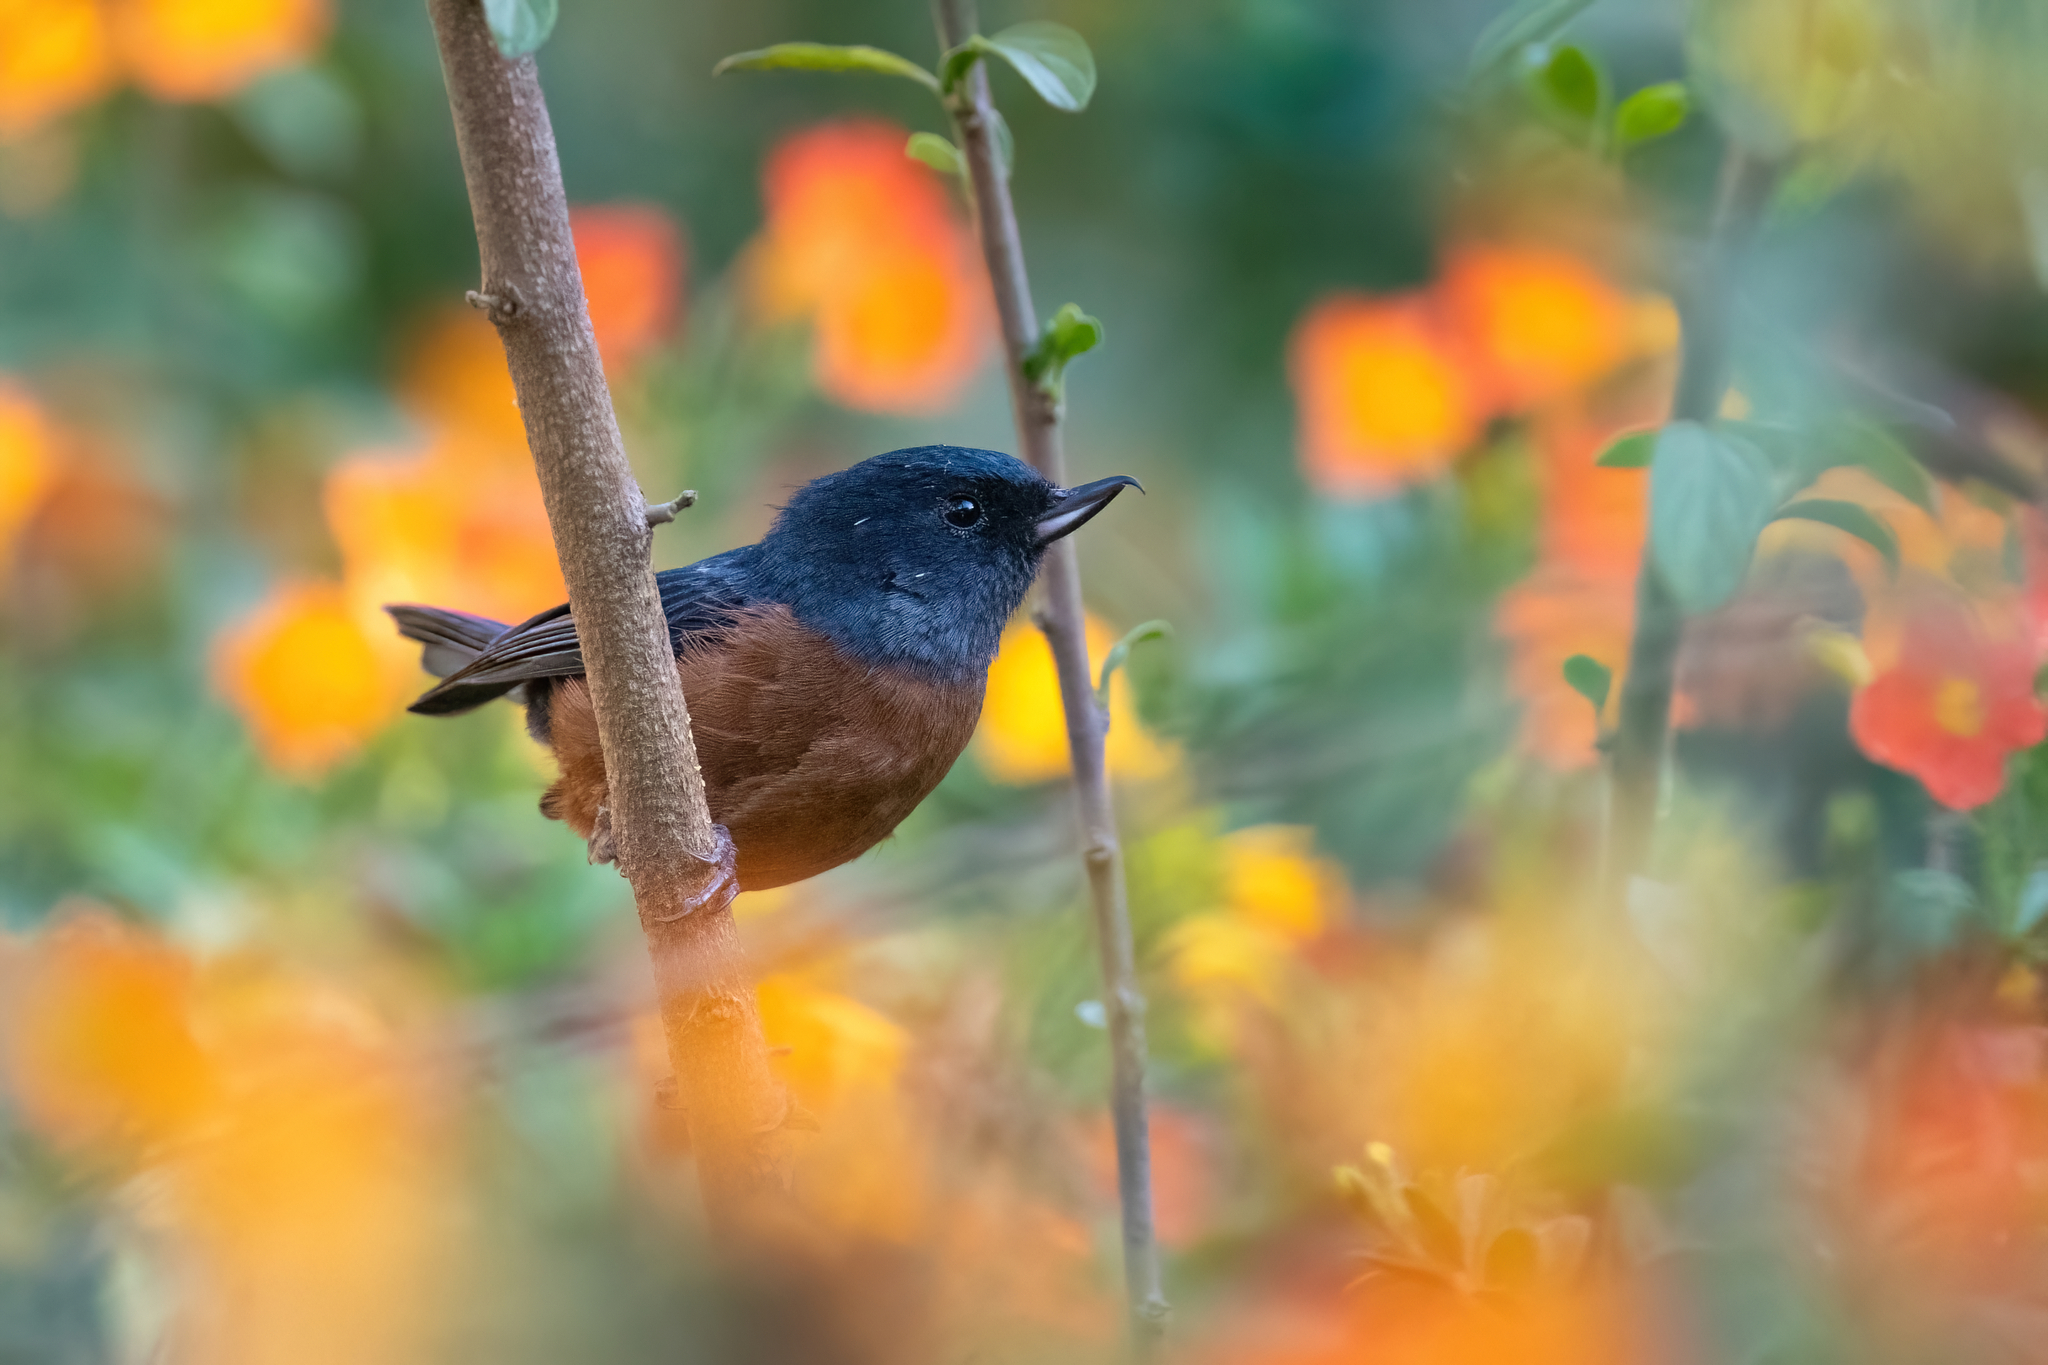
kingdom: Animalia
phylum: Chordata
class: Aves
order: Passeriformes
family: Thraupidae
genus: Diglossa
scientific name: Diglossa baritula
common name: Cinnamon-bellied flowerpiercer
